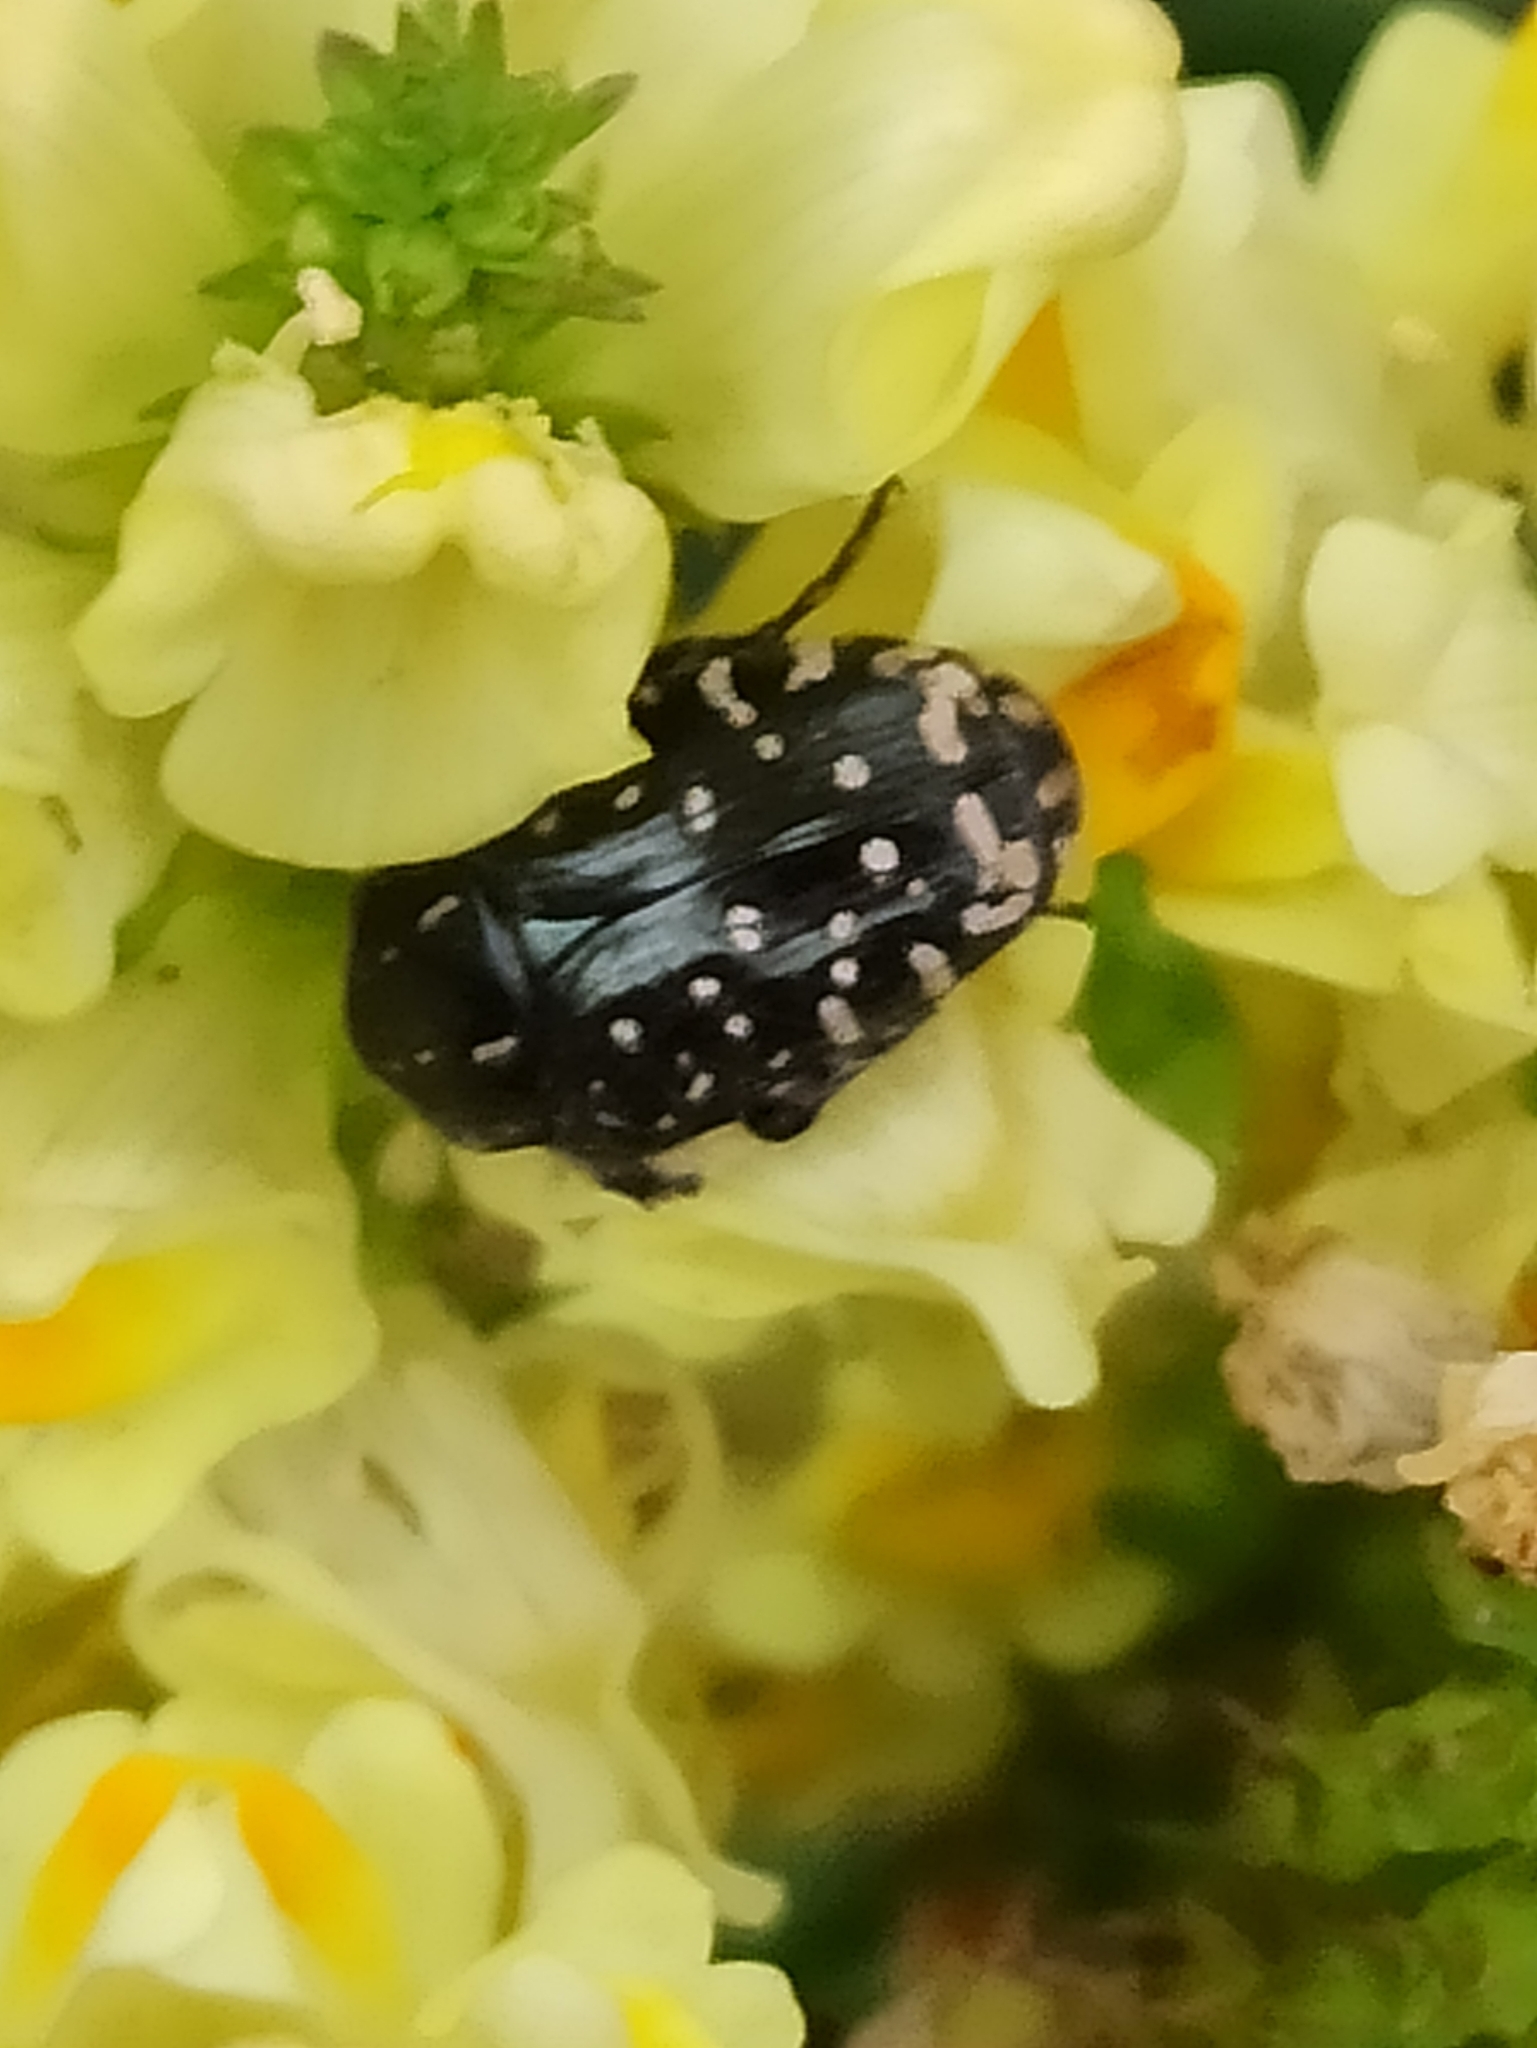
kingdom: Animalia
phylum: Arthropoda
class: Insecta
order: Coleoptera
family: Scarabaeidae
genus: Oxythyrea
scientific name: Oxythyrea funesta
